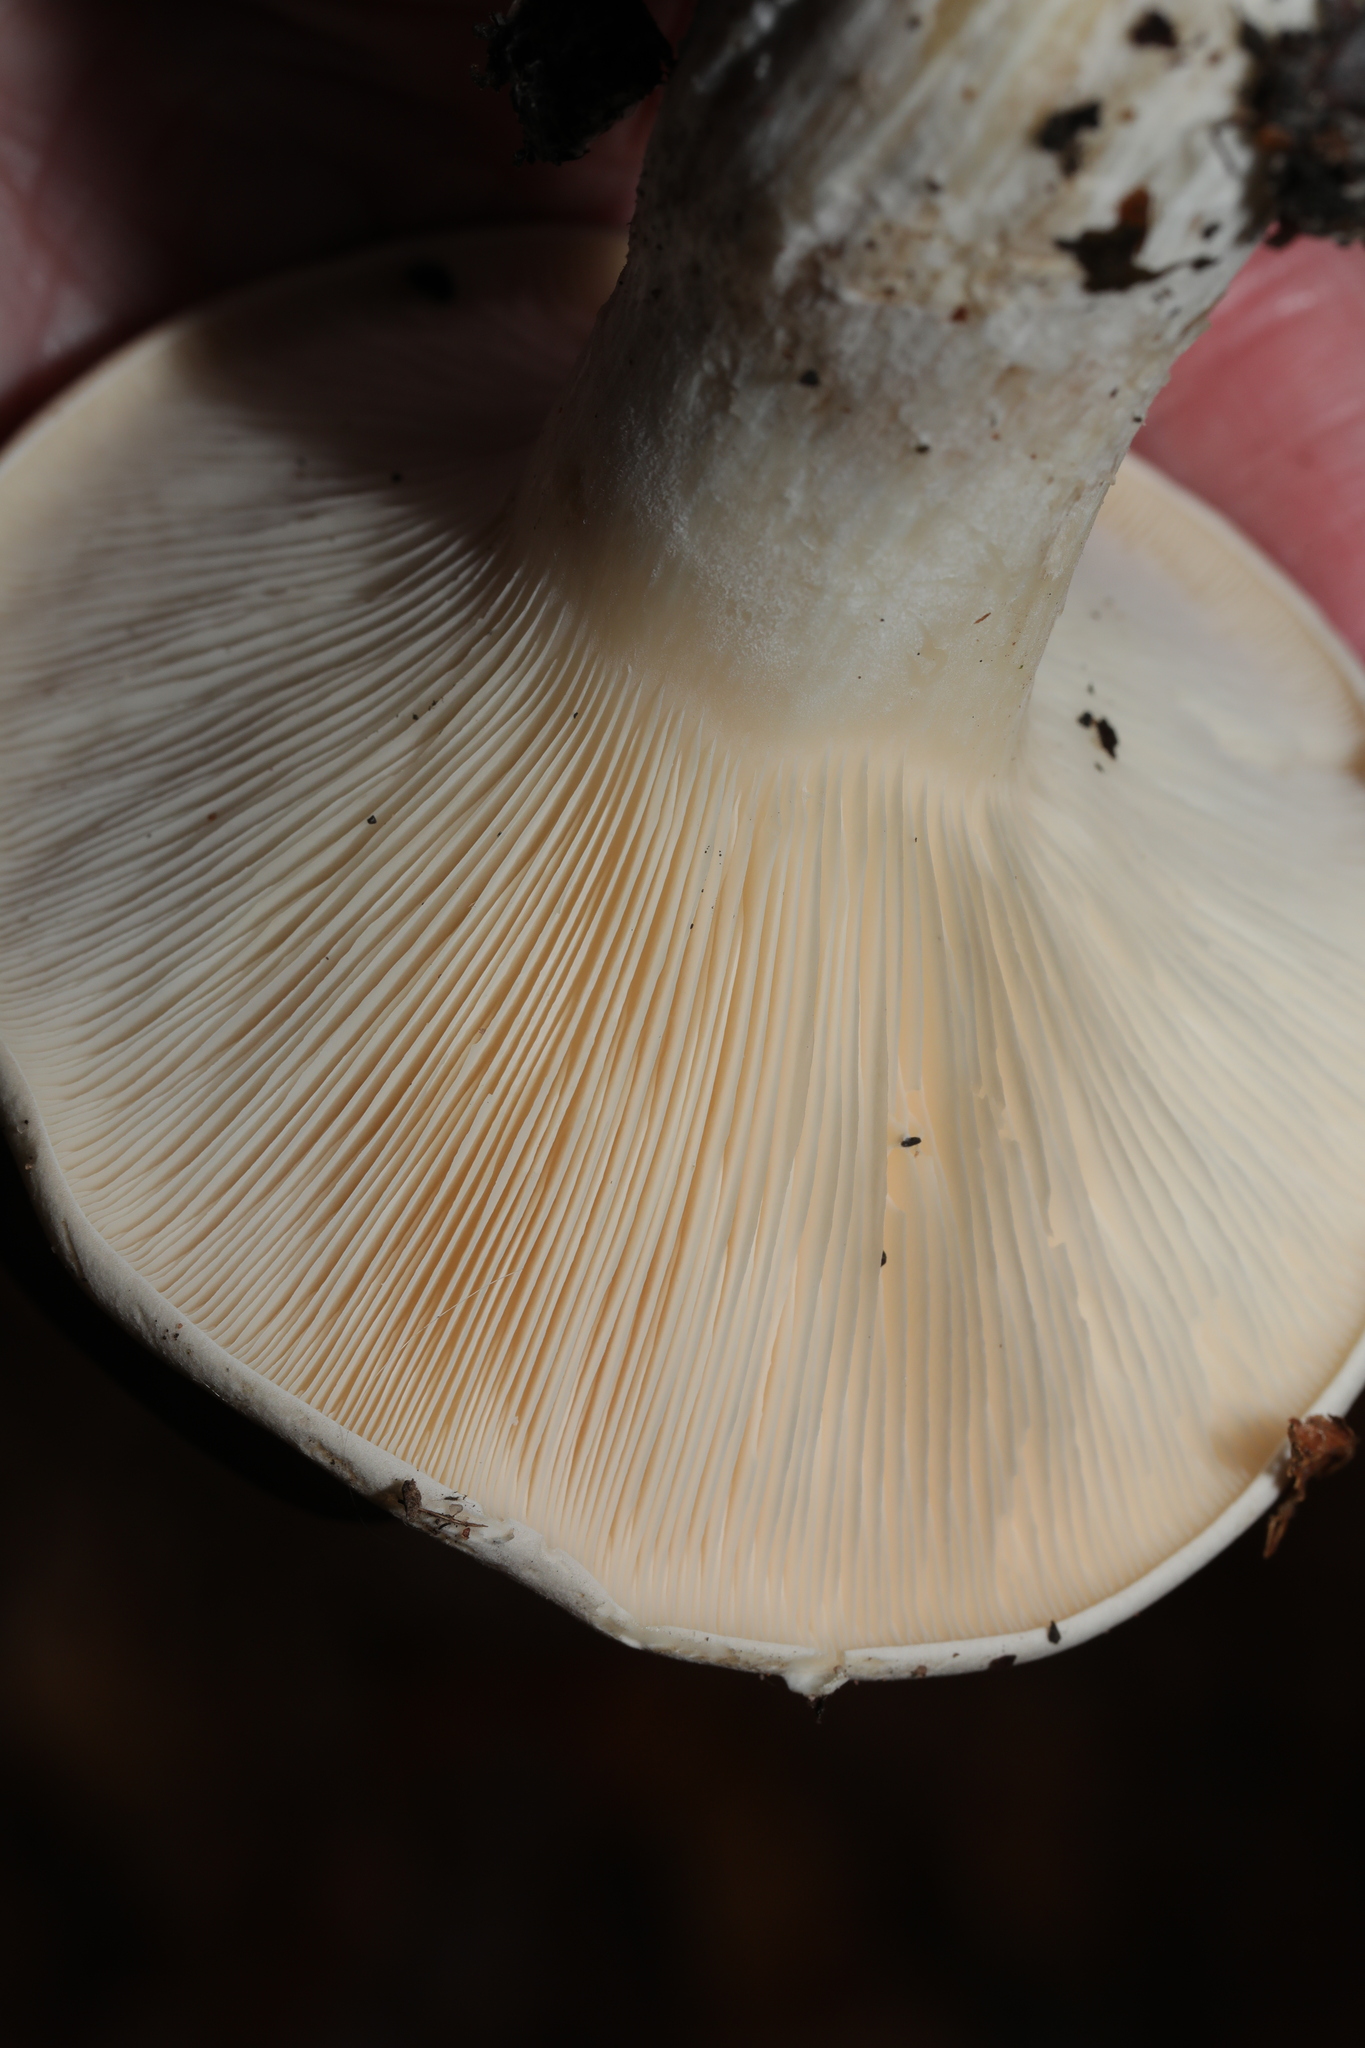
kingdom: Fungi
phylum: Basidiomycota
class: Agaricomycetes
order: Agaricales
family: Tricholomataceae
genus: Clitocybe
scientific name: Clitocybe nebularis
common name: Clouded agaric
